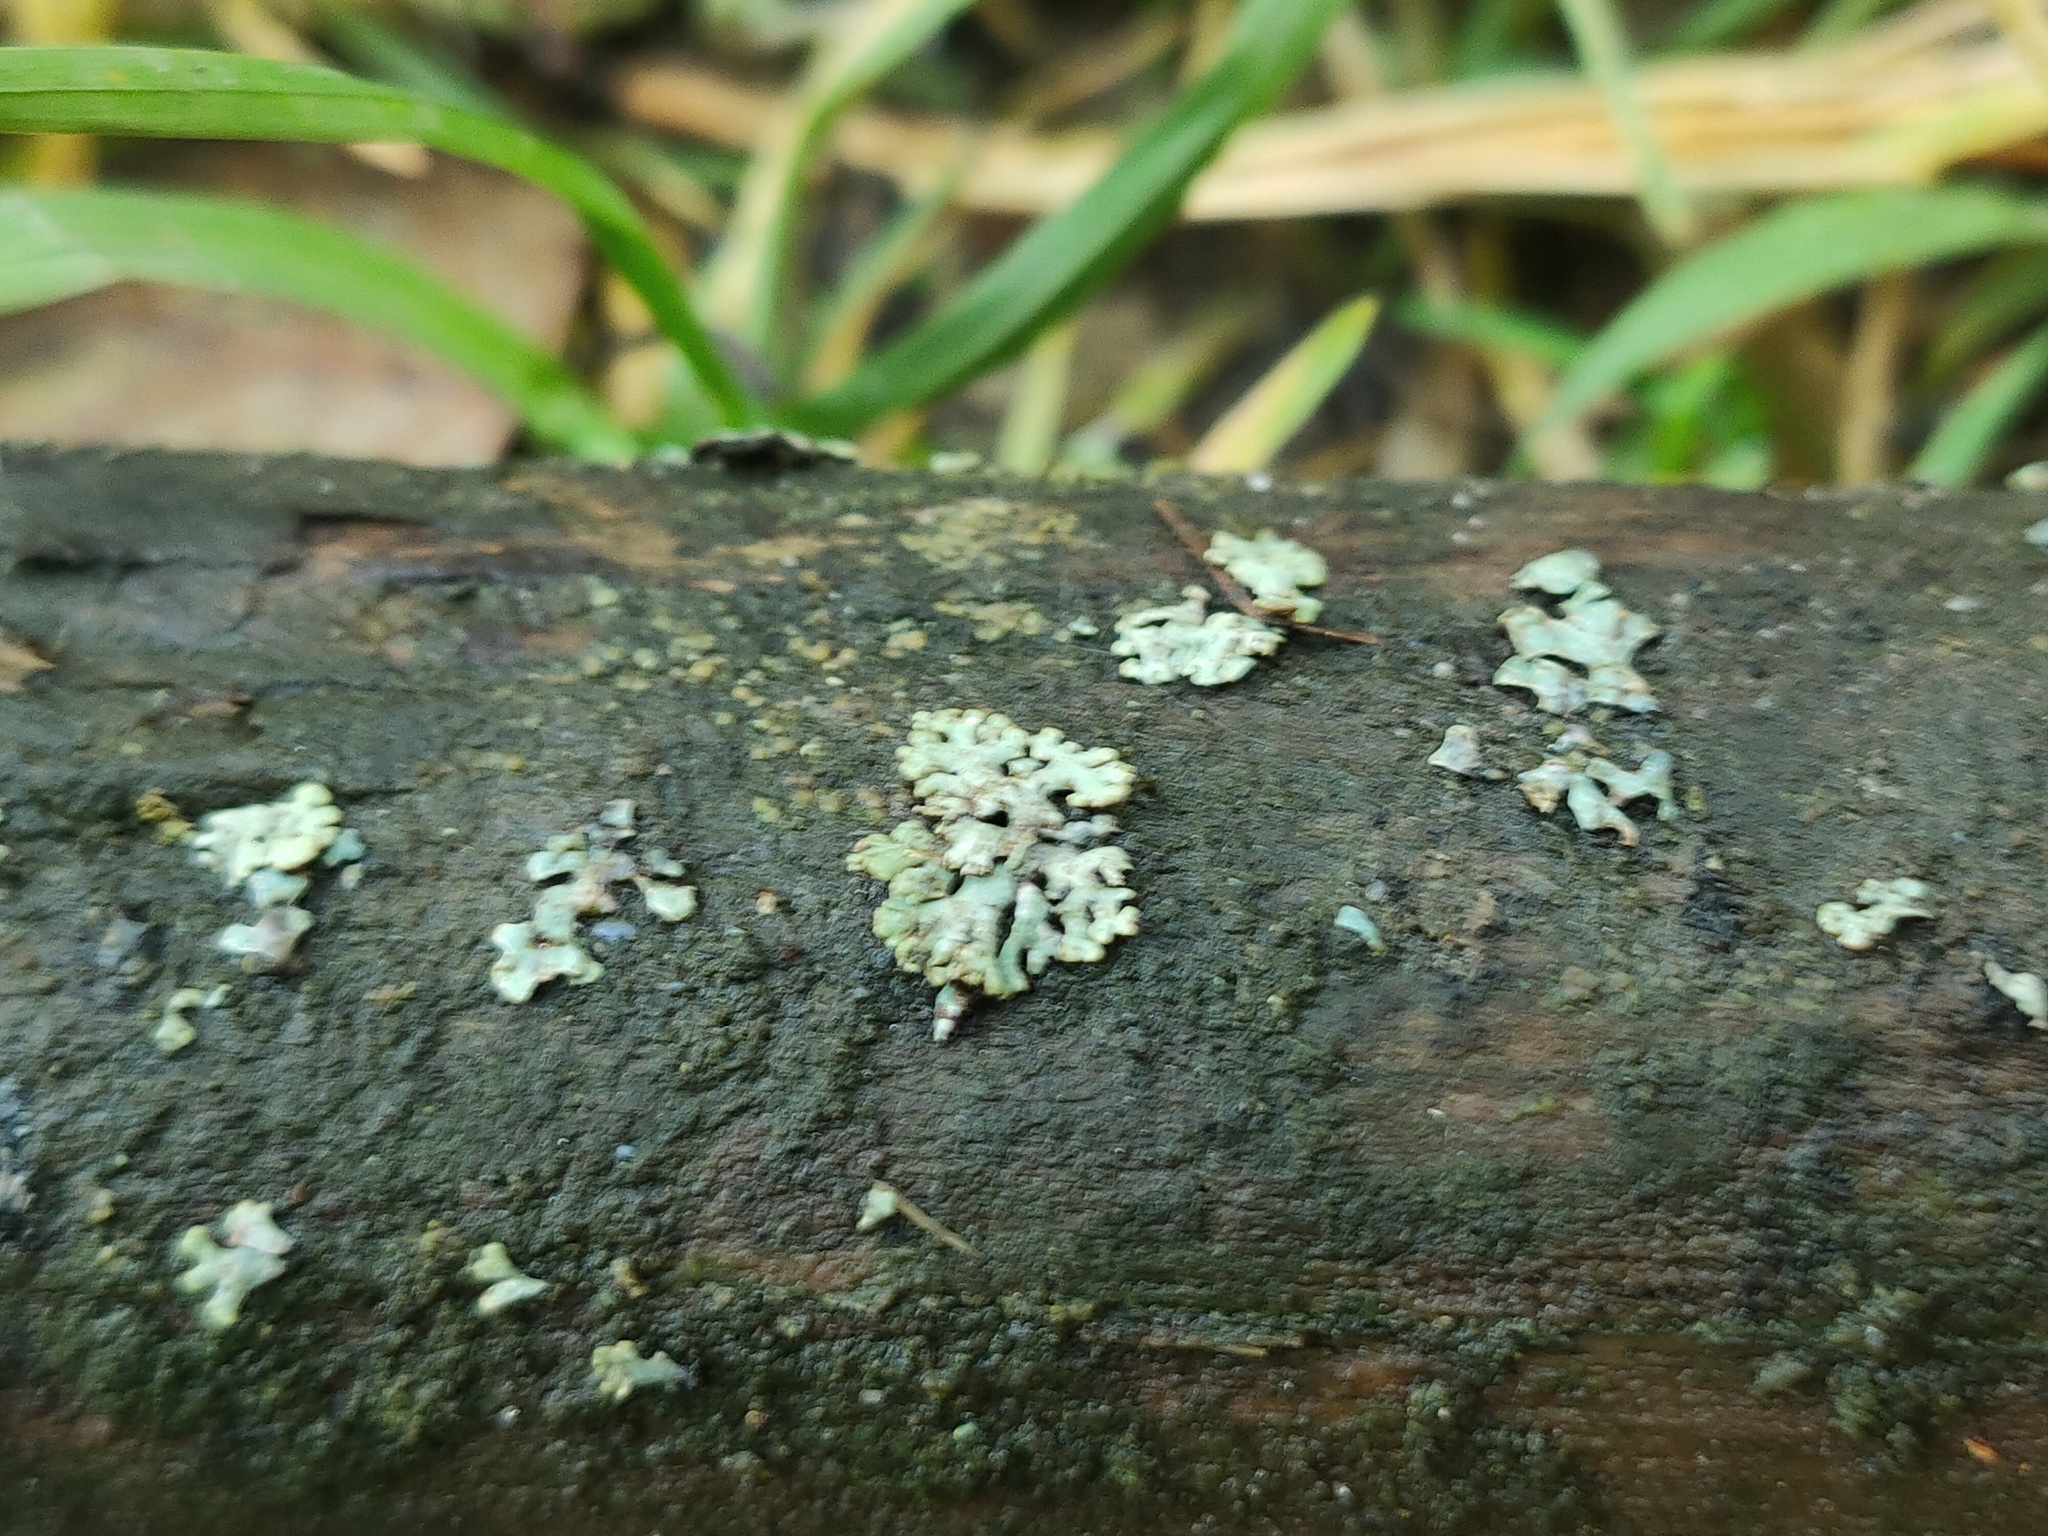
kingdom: Fungi
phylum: Ascomycota
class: Lecanoromycetes
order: Lecanorales
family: Parmeliaceae
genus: Hypogymnia
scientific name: Hypogymnia physodes
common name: Dark crottle
